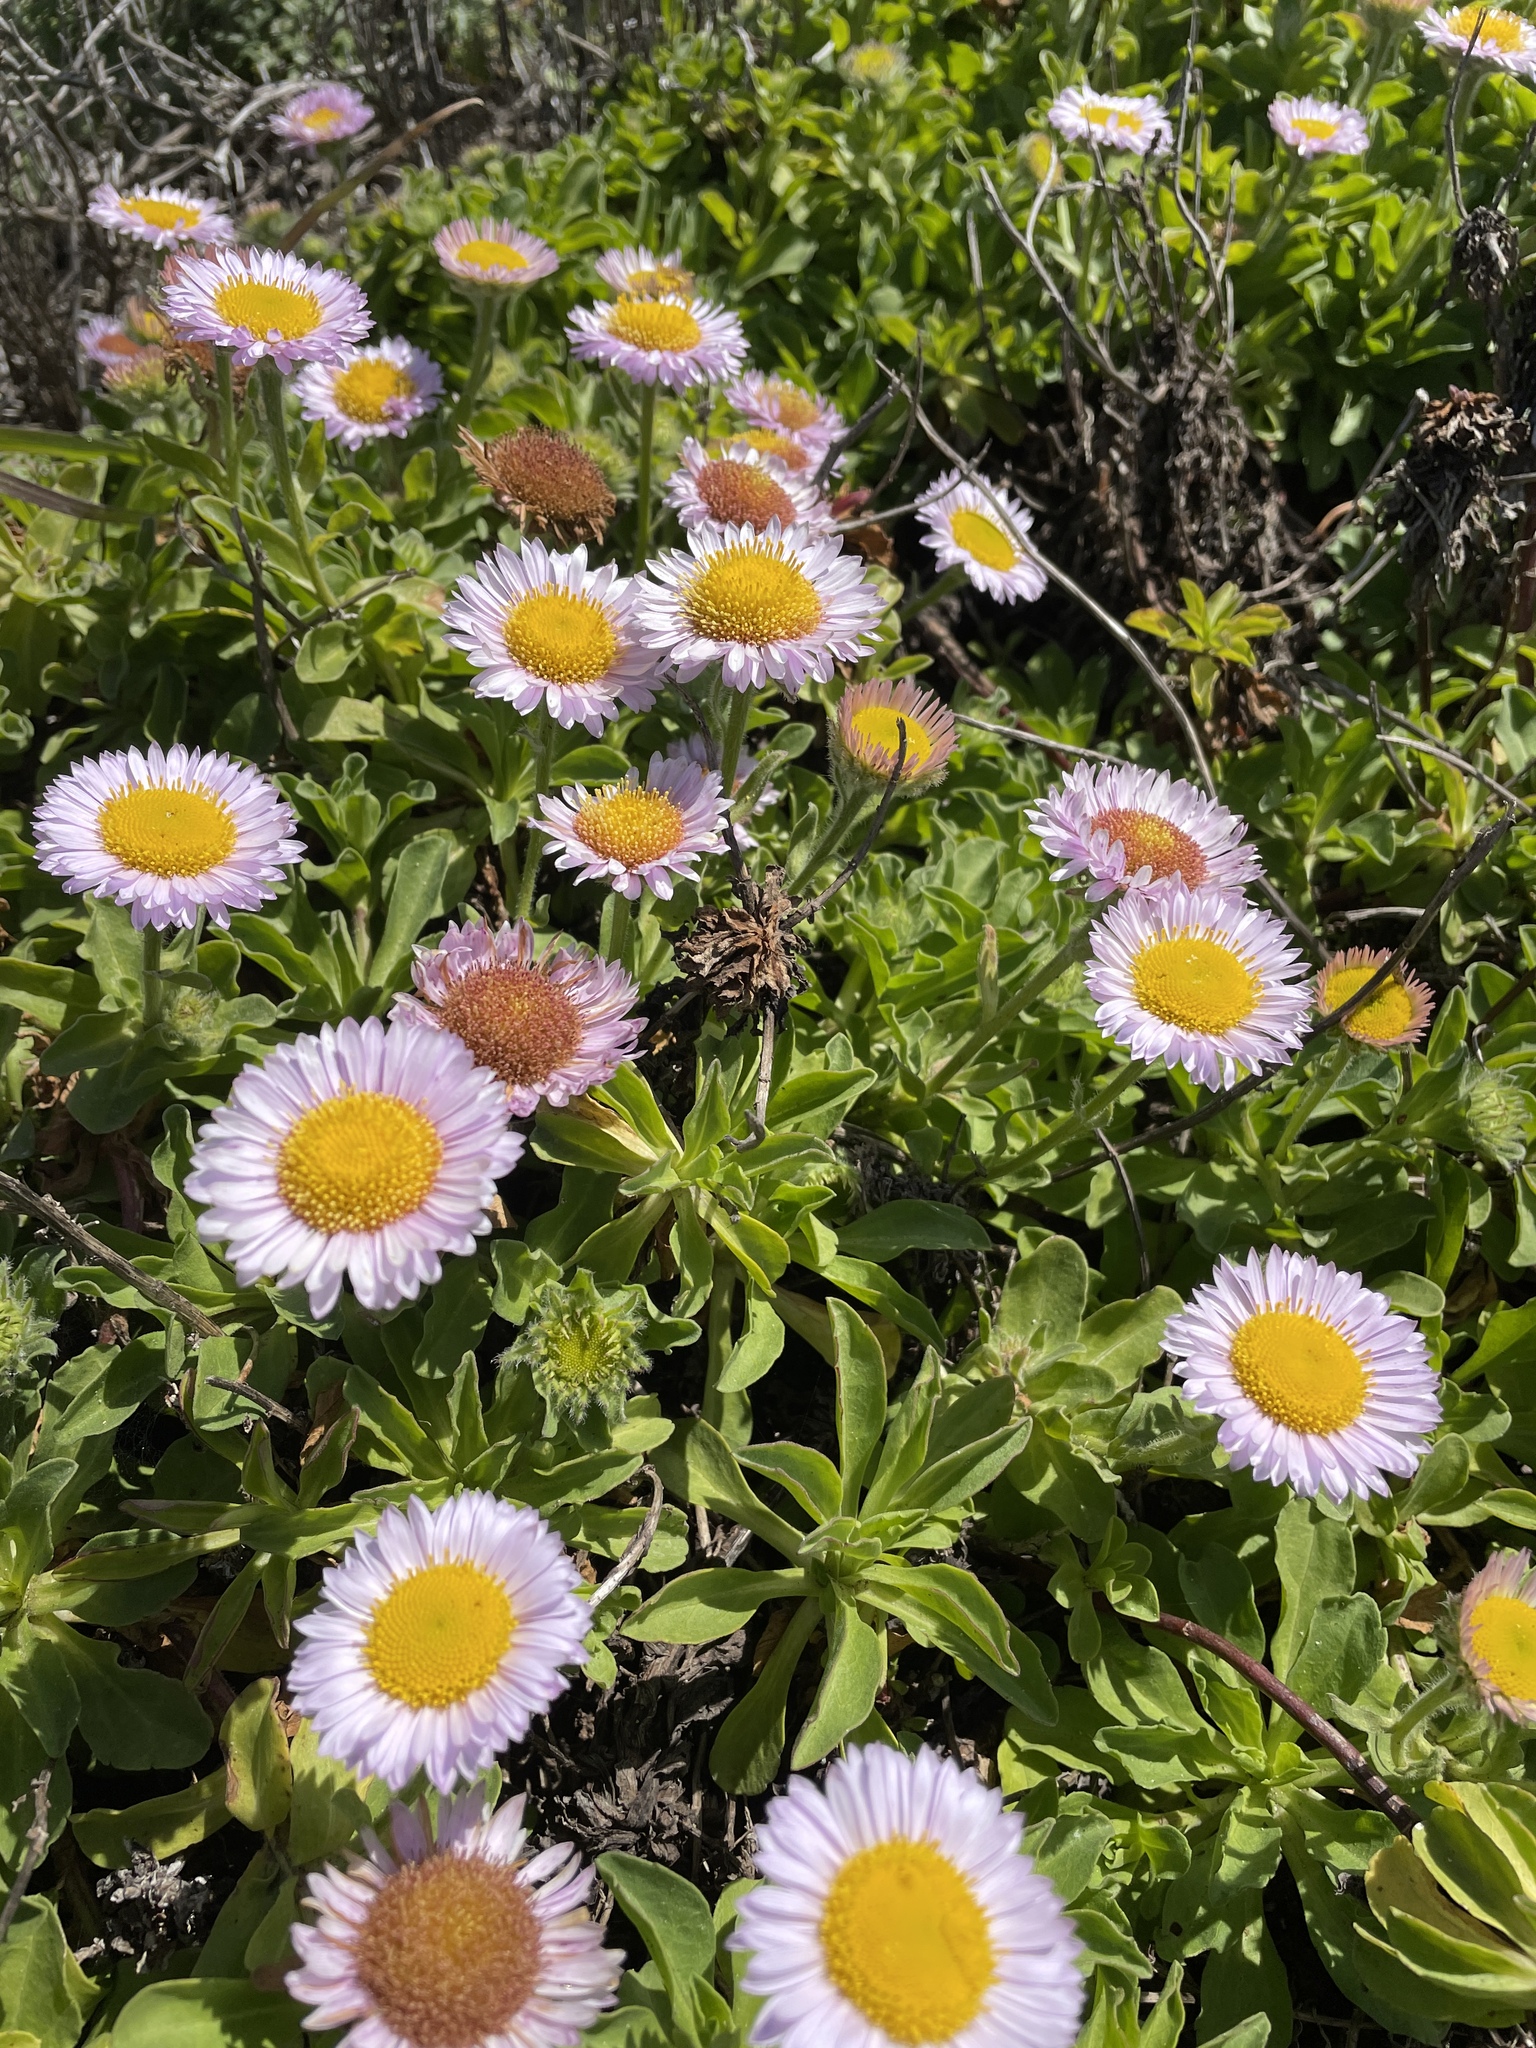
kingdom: Plantae
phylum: Tracheophyta
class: Magnoliopsida
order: Asterales
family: Asteraceae
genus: Erigeron
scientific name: Erigeron glaucus
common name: Seaside daisy
